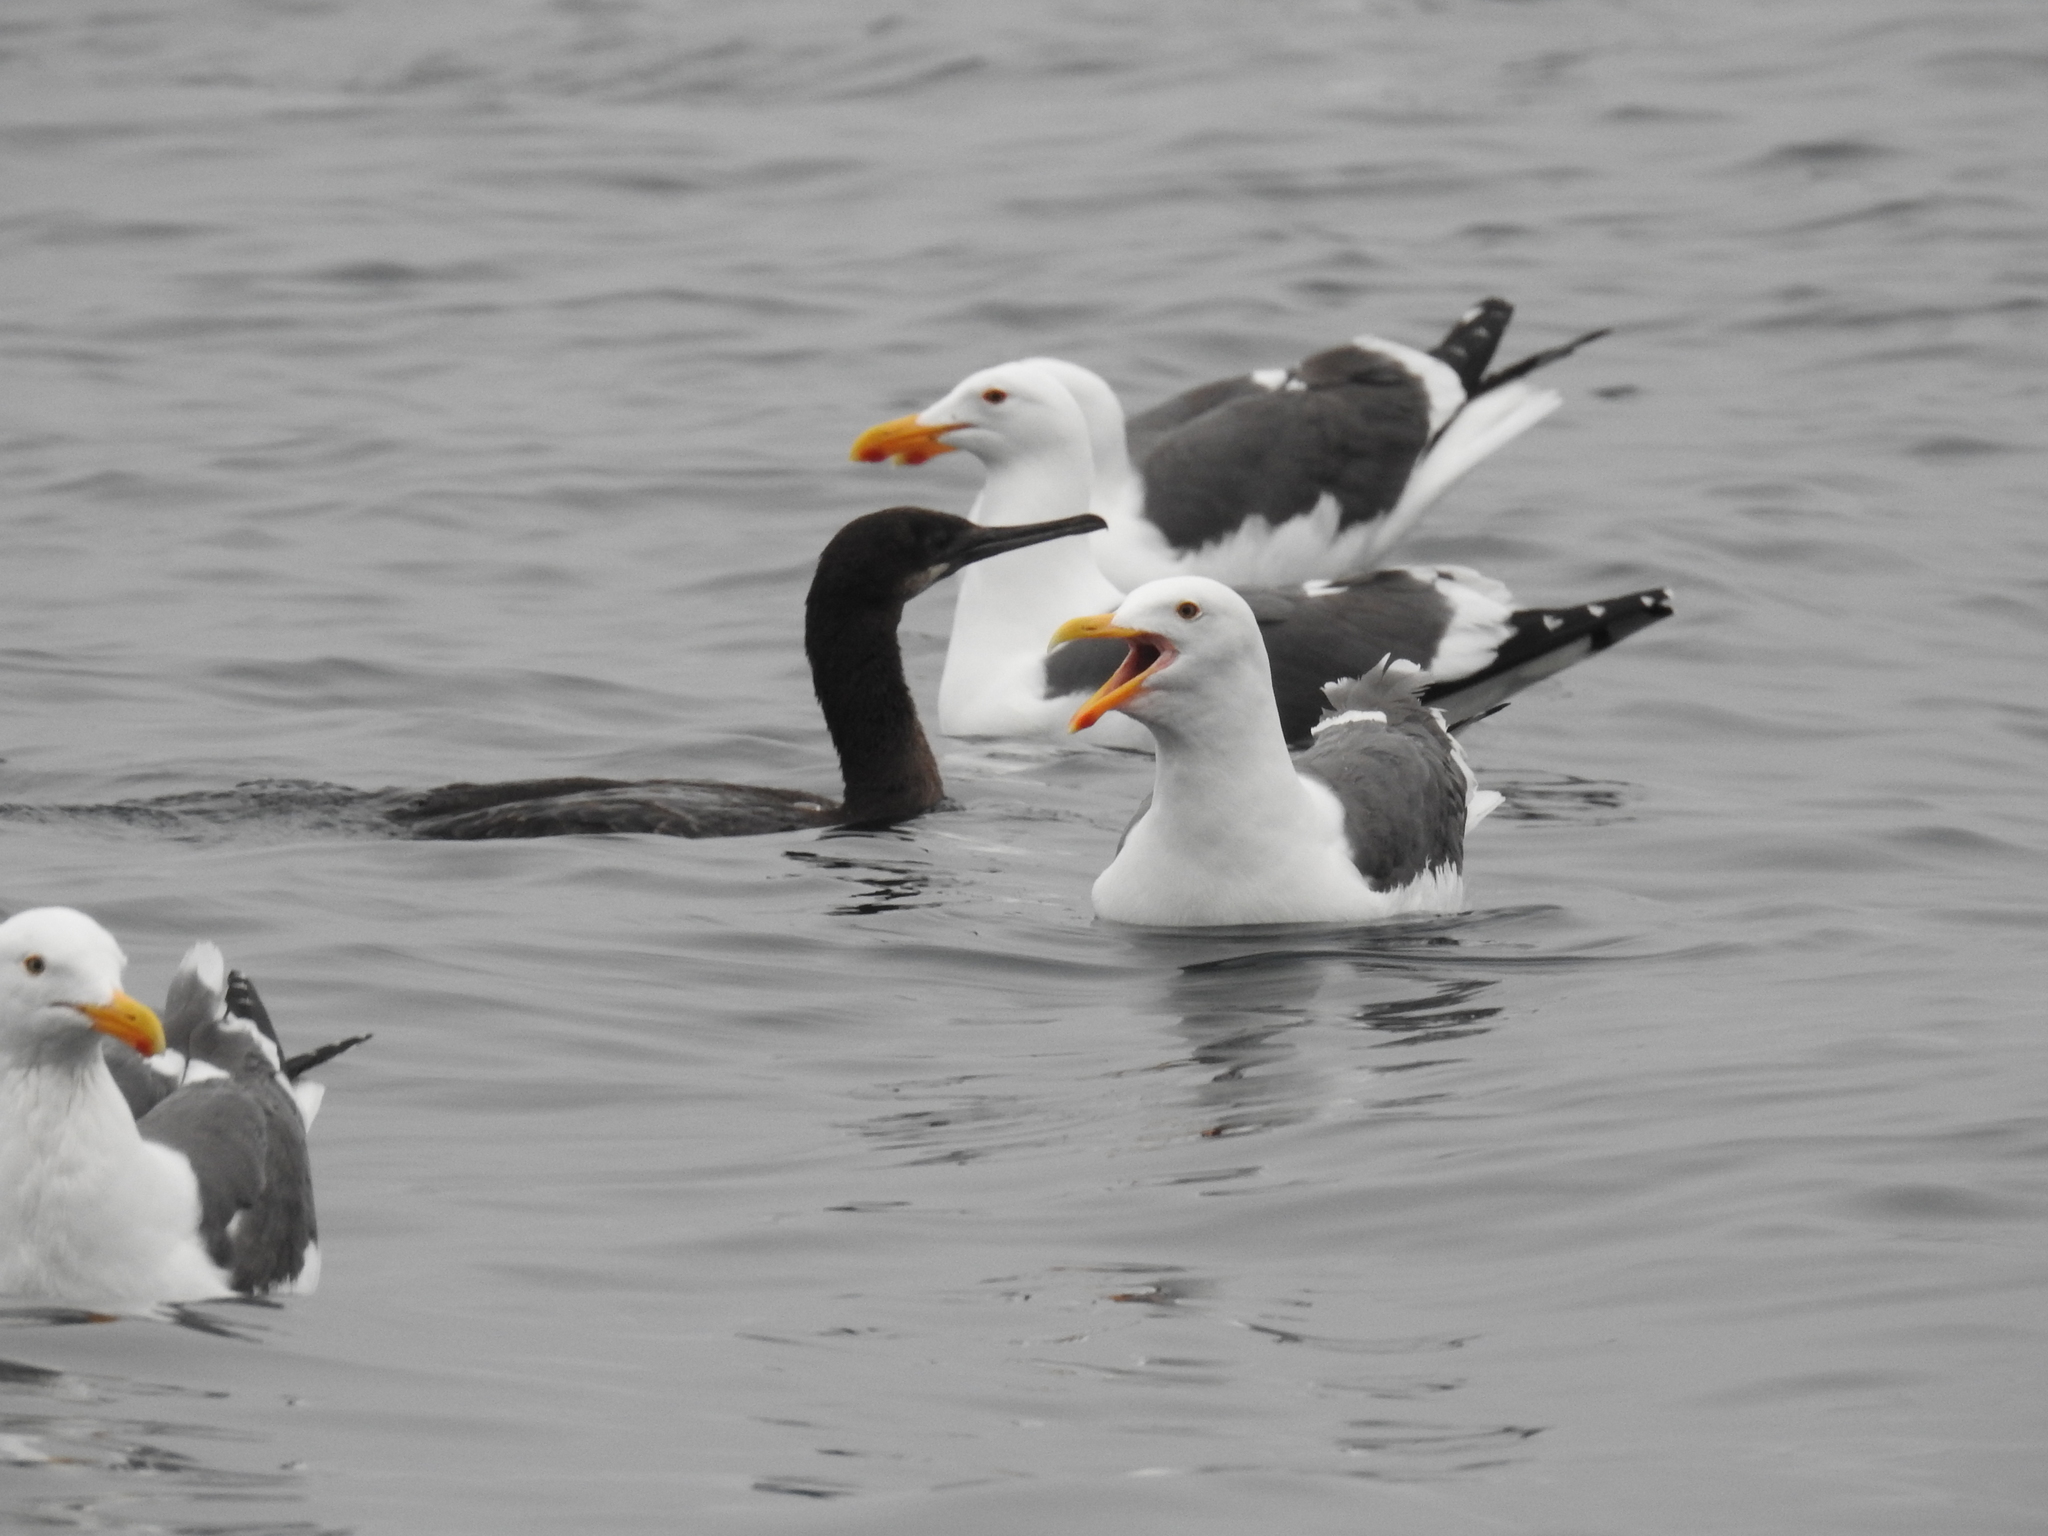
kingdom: Animalia
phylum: Chordata
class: Aves
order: Charadriiformes
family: Laridae
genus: Larus
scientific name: Larus occidentalis
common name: Western gull
